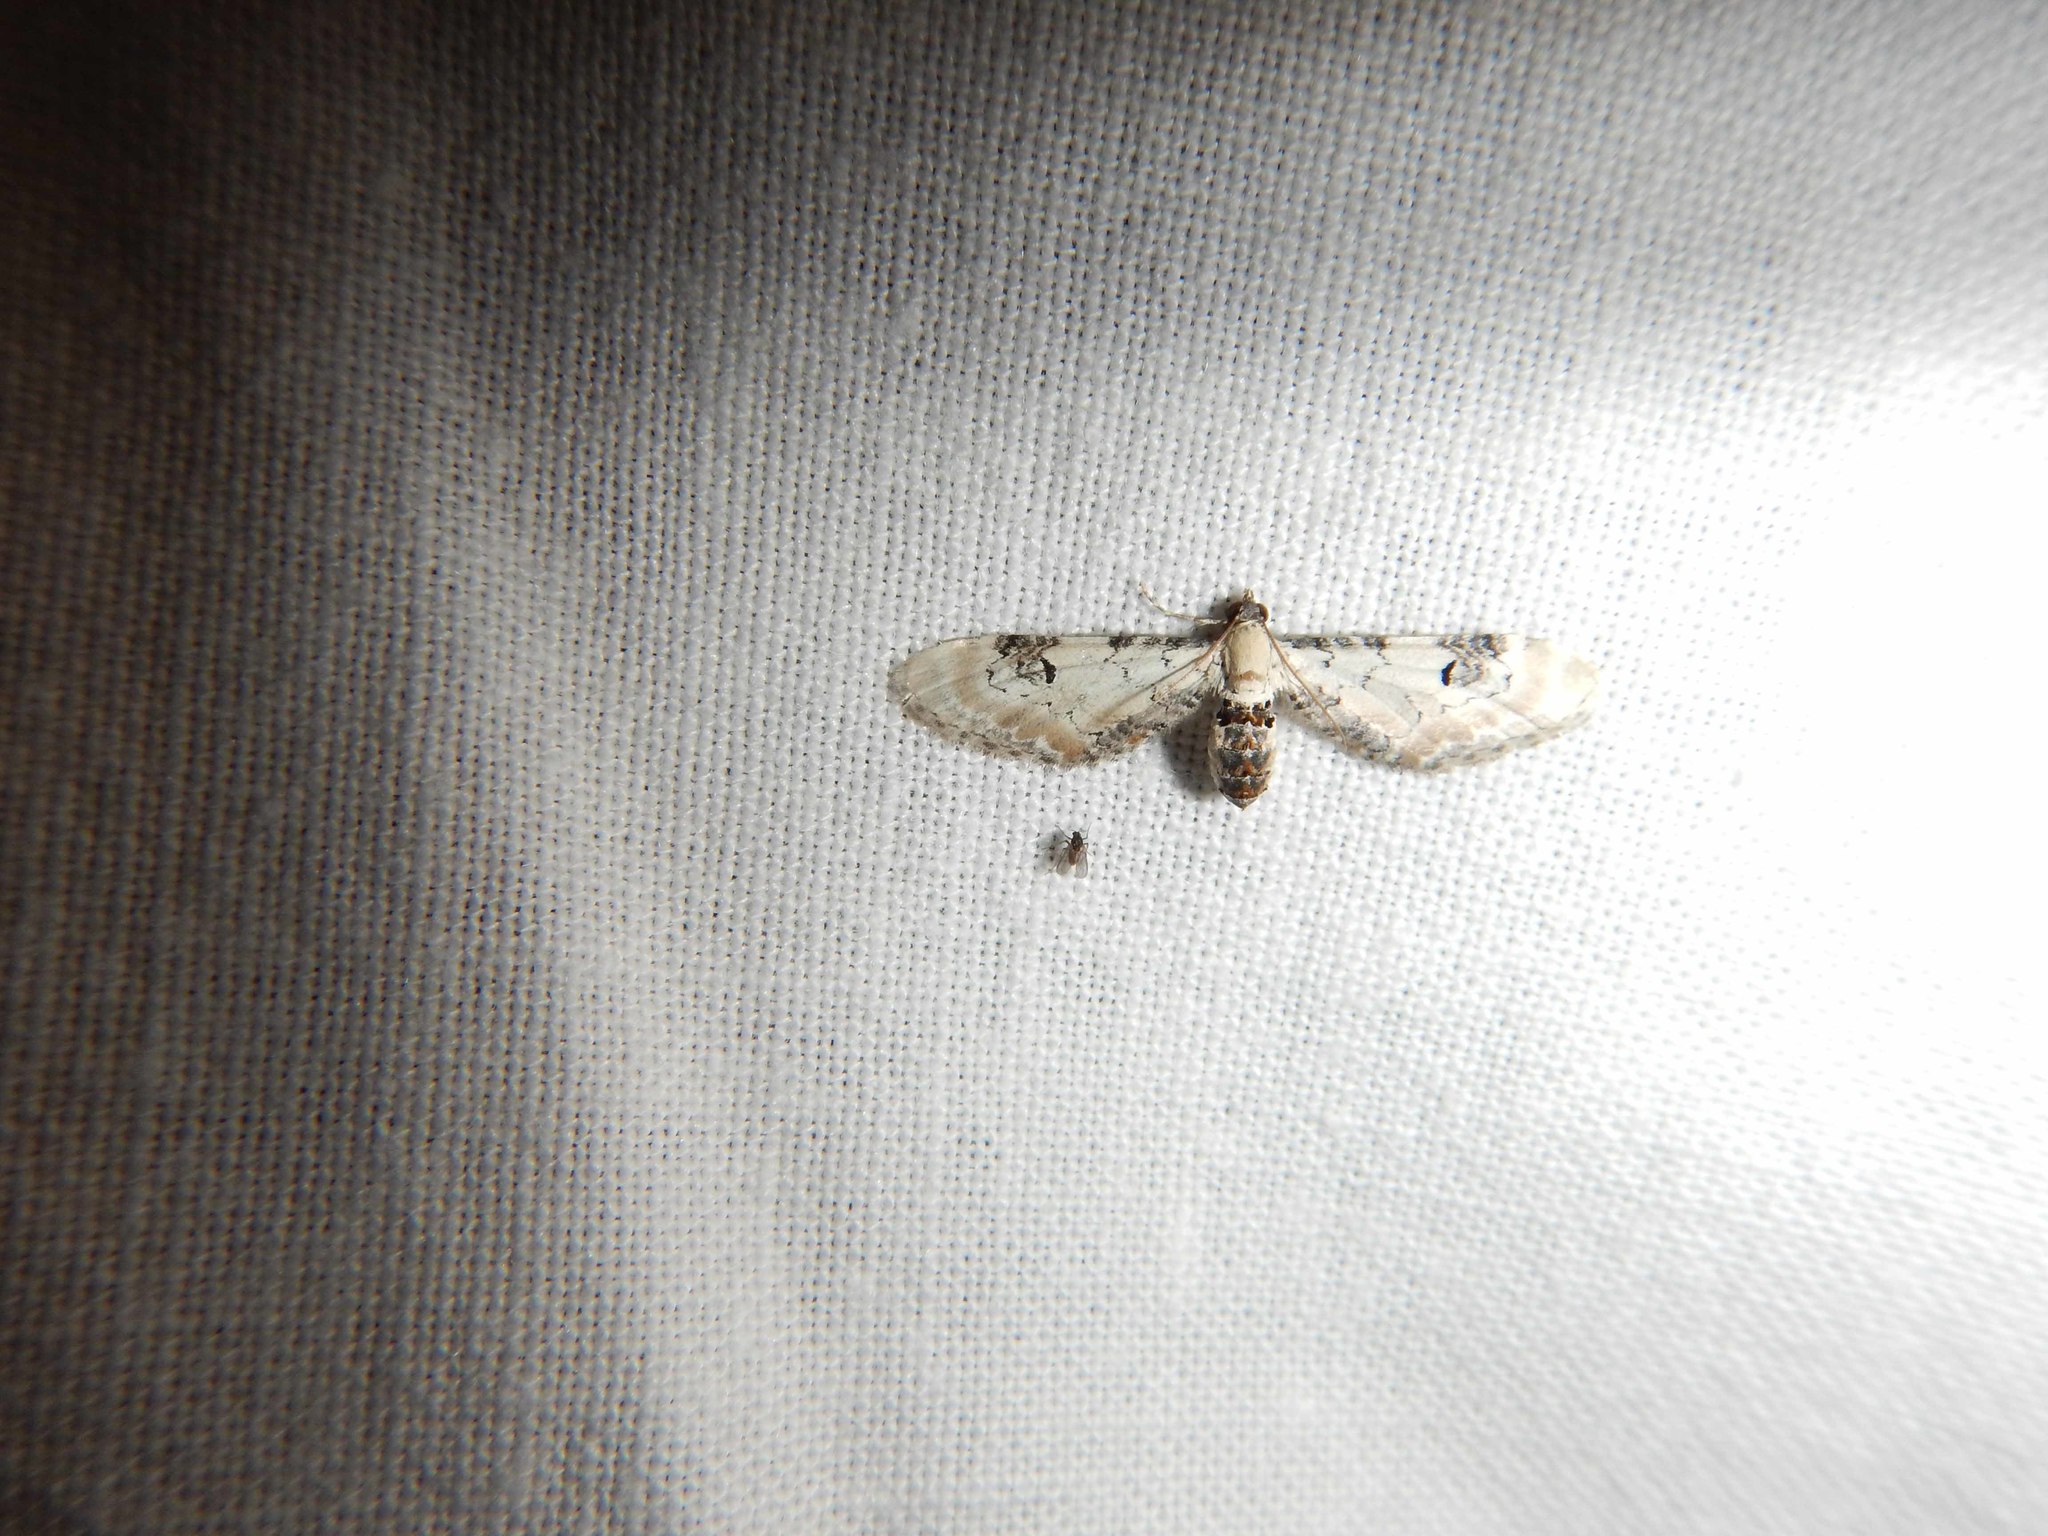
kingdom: Animalia
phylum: Arthropoda
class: Insecta
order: Lepidoptera
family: Geometridae
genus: Eupithecia
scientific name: Eupithecia centaureata
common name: Lime-speck pug
